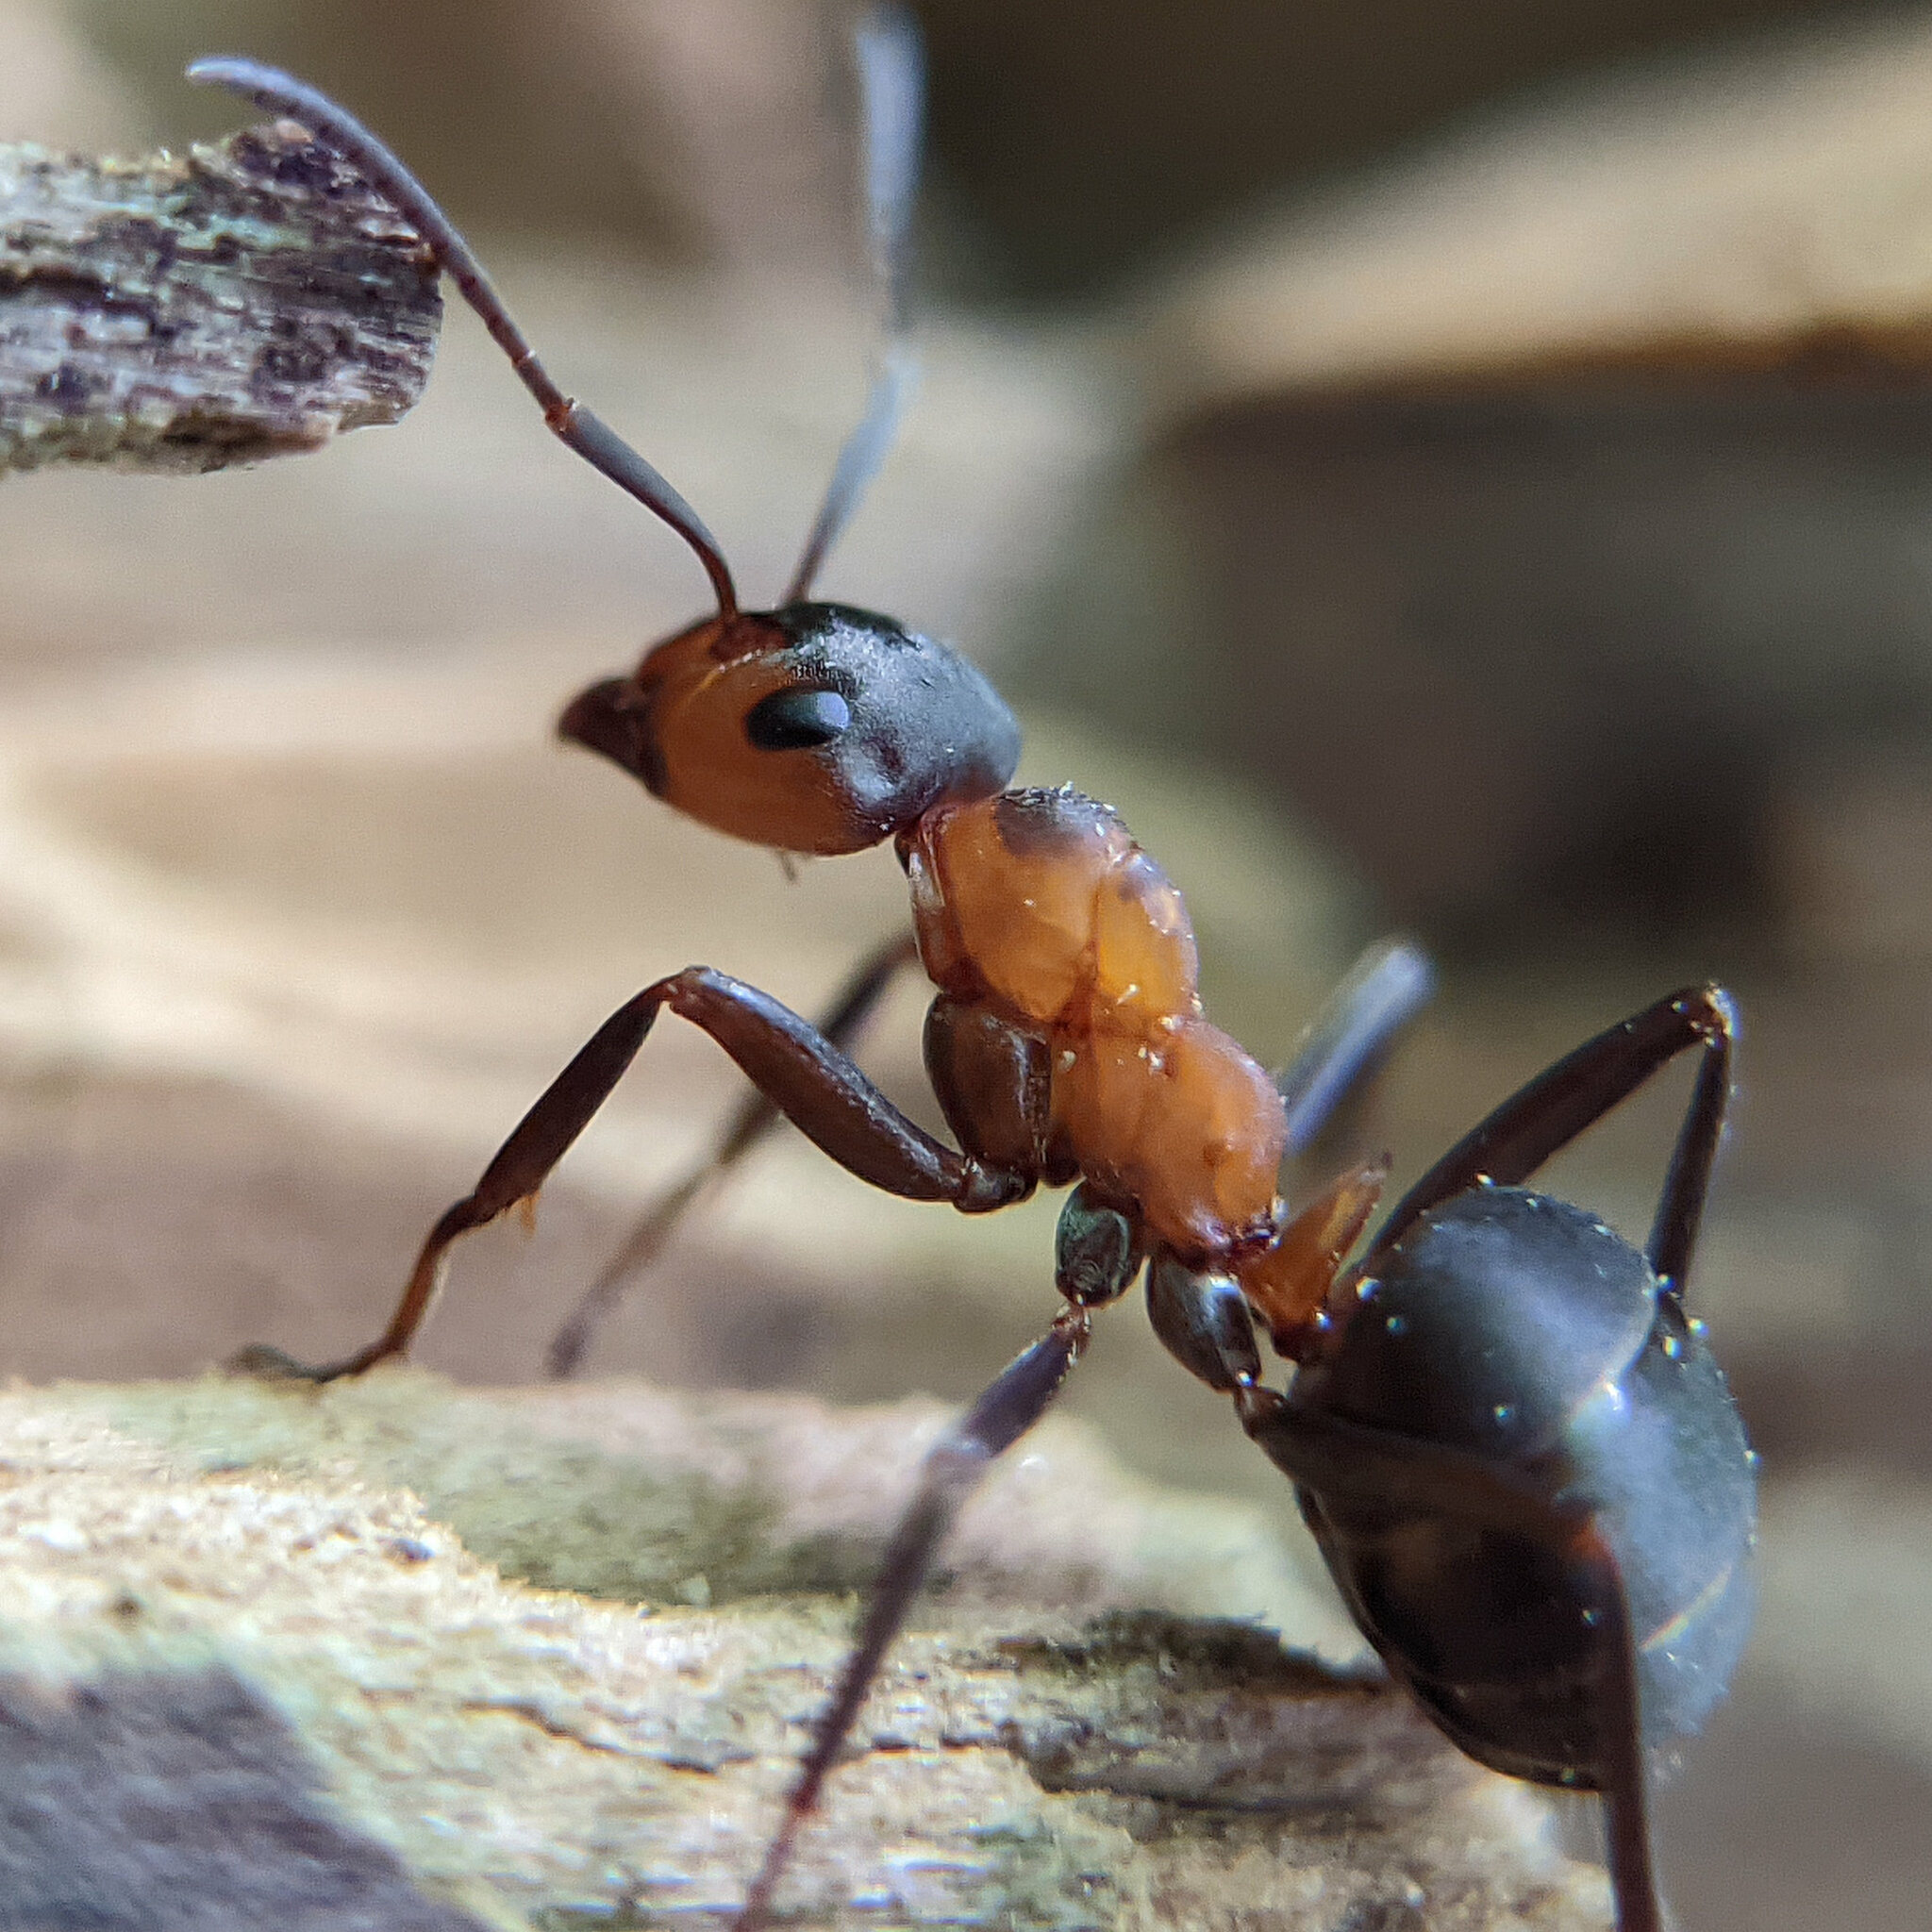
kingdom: Animalia
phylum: Arthropoda
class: Insecta
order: Hymenoptera
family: Formicidae
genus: Formica
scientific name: Formica polyctena
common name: European red wood ant
